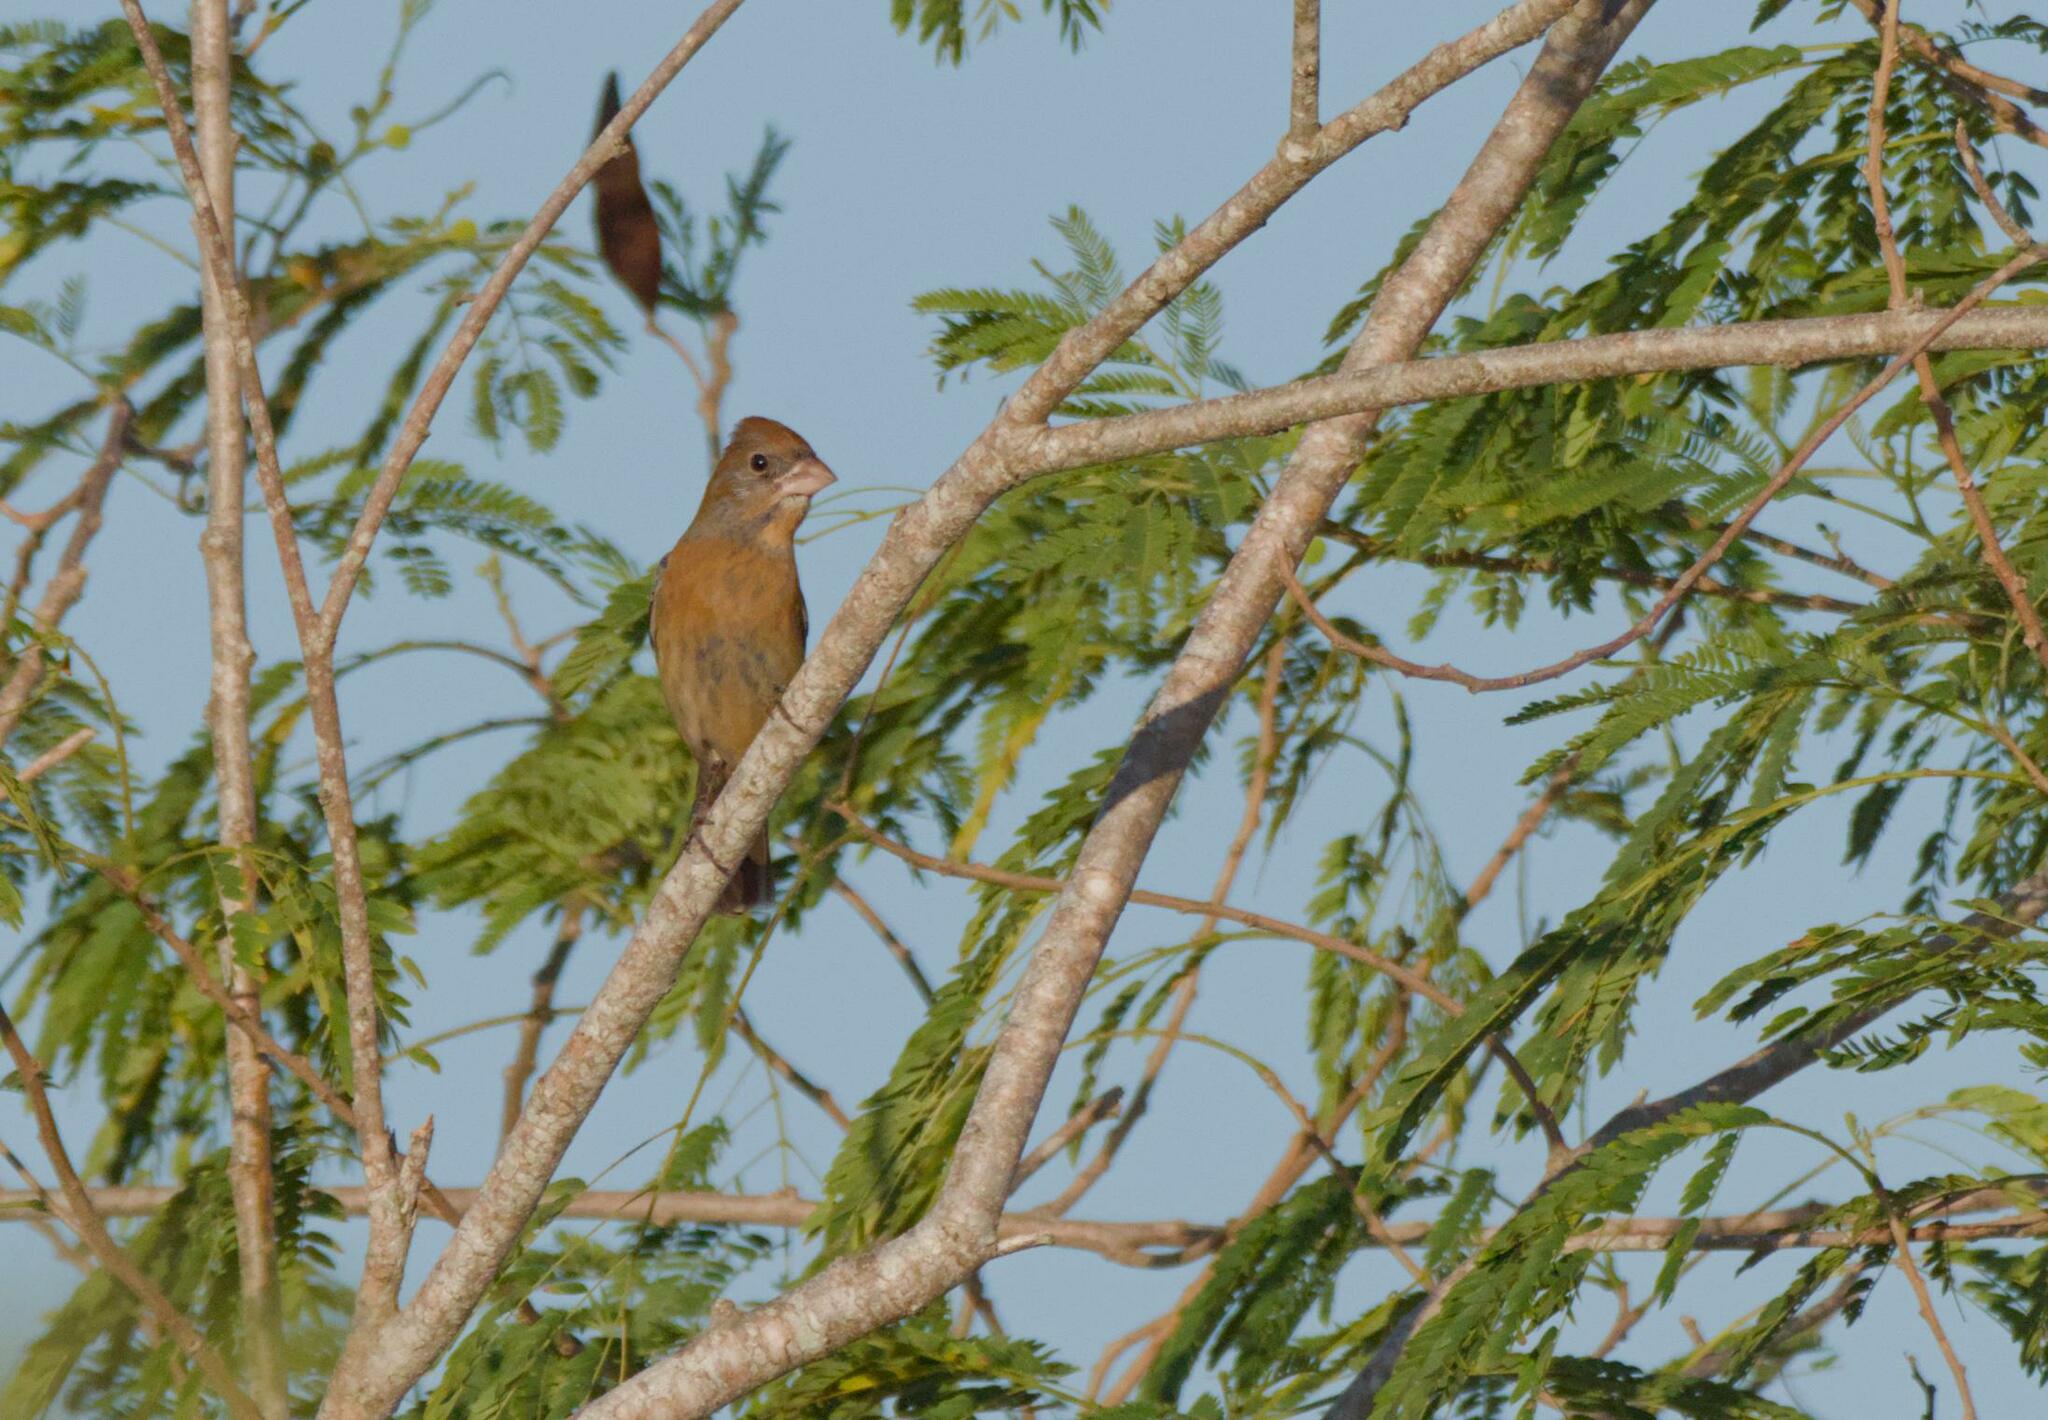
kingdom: Animalia
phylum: Chordata
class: Aves
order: Passeriformes
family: Cardinalidae
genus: Passerina
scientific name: Passerina caerulea
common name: Blue grosbeak
